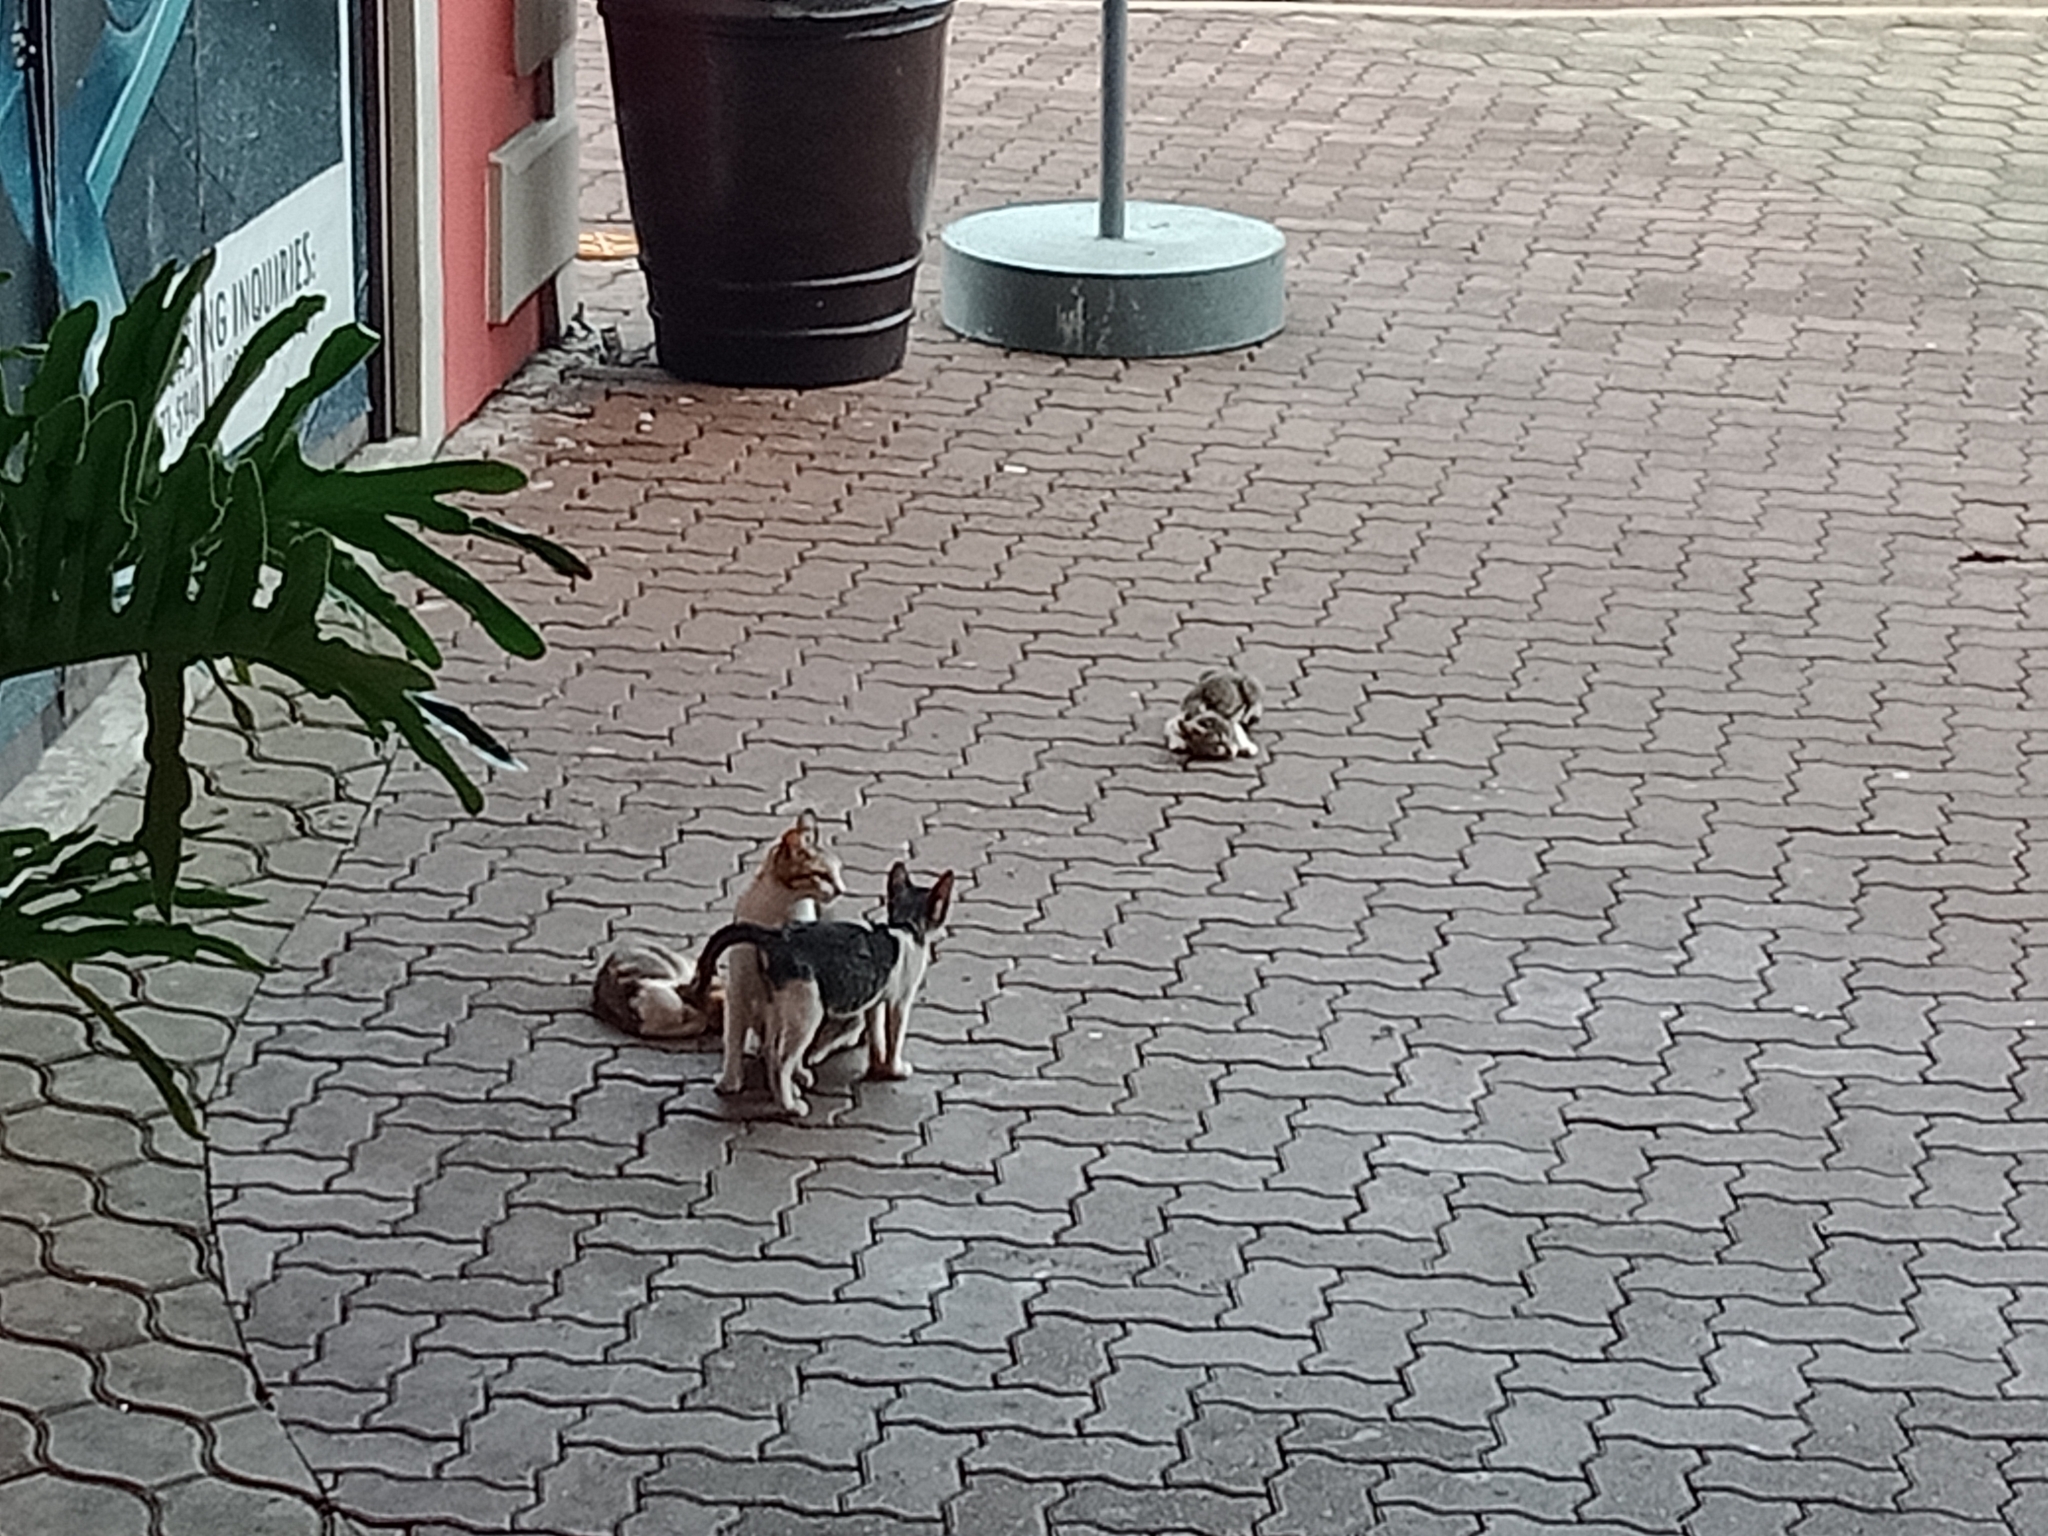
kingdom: Animalia
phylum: Chordata
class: Mammalia
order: Carnivora
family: Felidae
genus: Felis
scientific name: Felis catus
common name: Domestic cat
